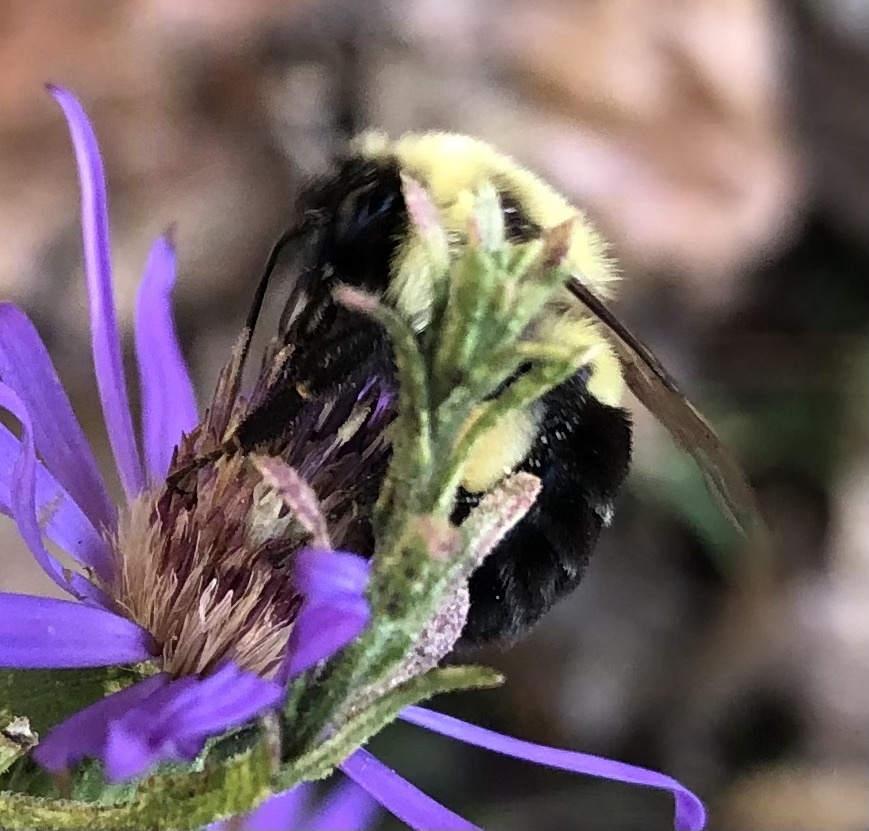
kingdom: Animalia
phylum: Arthropoda
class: Insecta
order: Hymenoptera
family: Apidae
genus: Bombus
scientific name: Bombus impatiens
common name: Common eastern bumble bee
